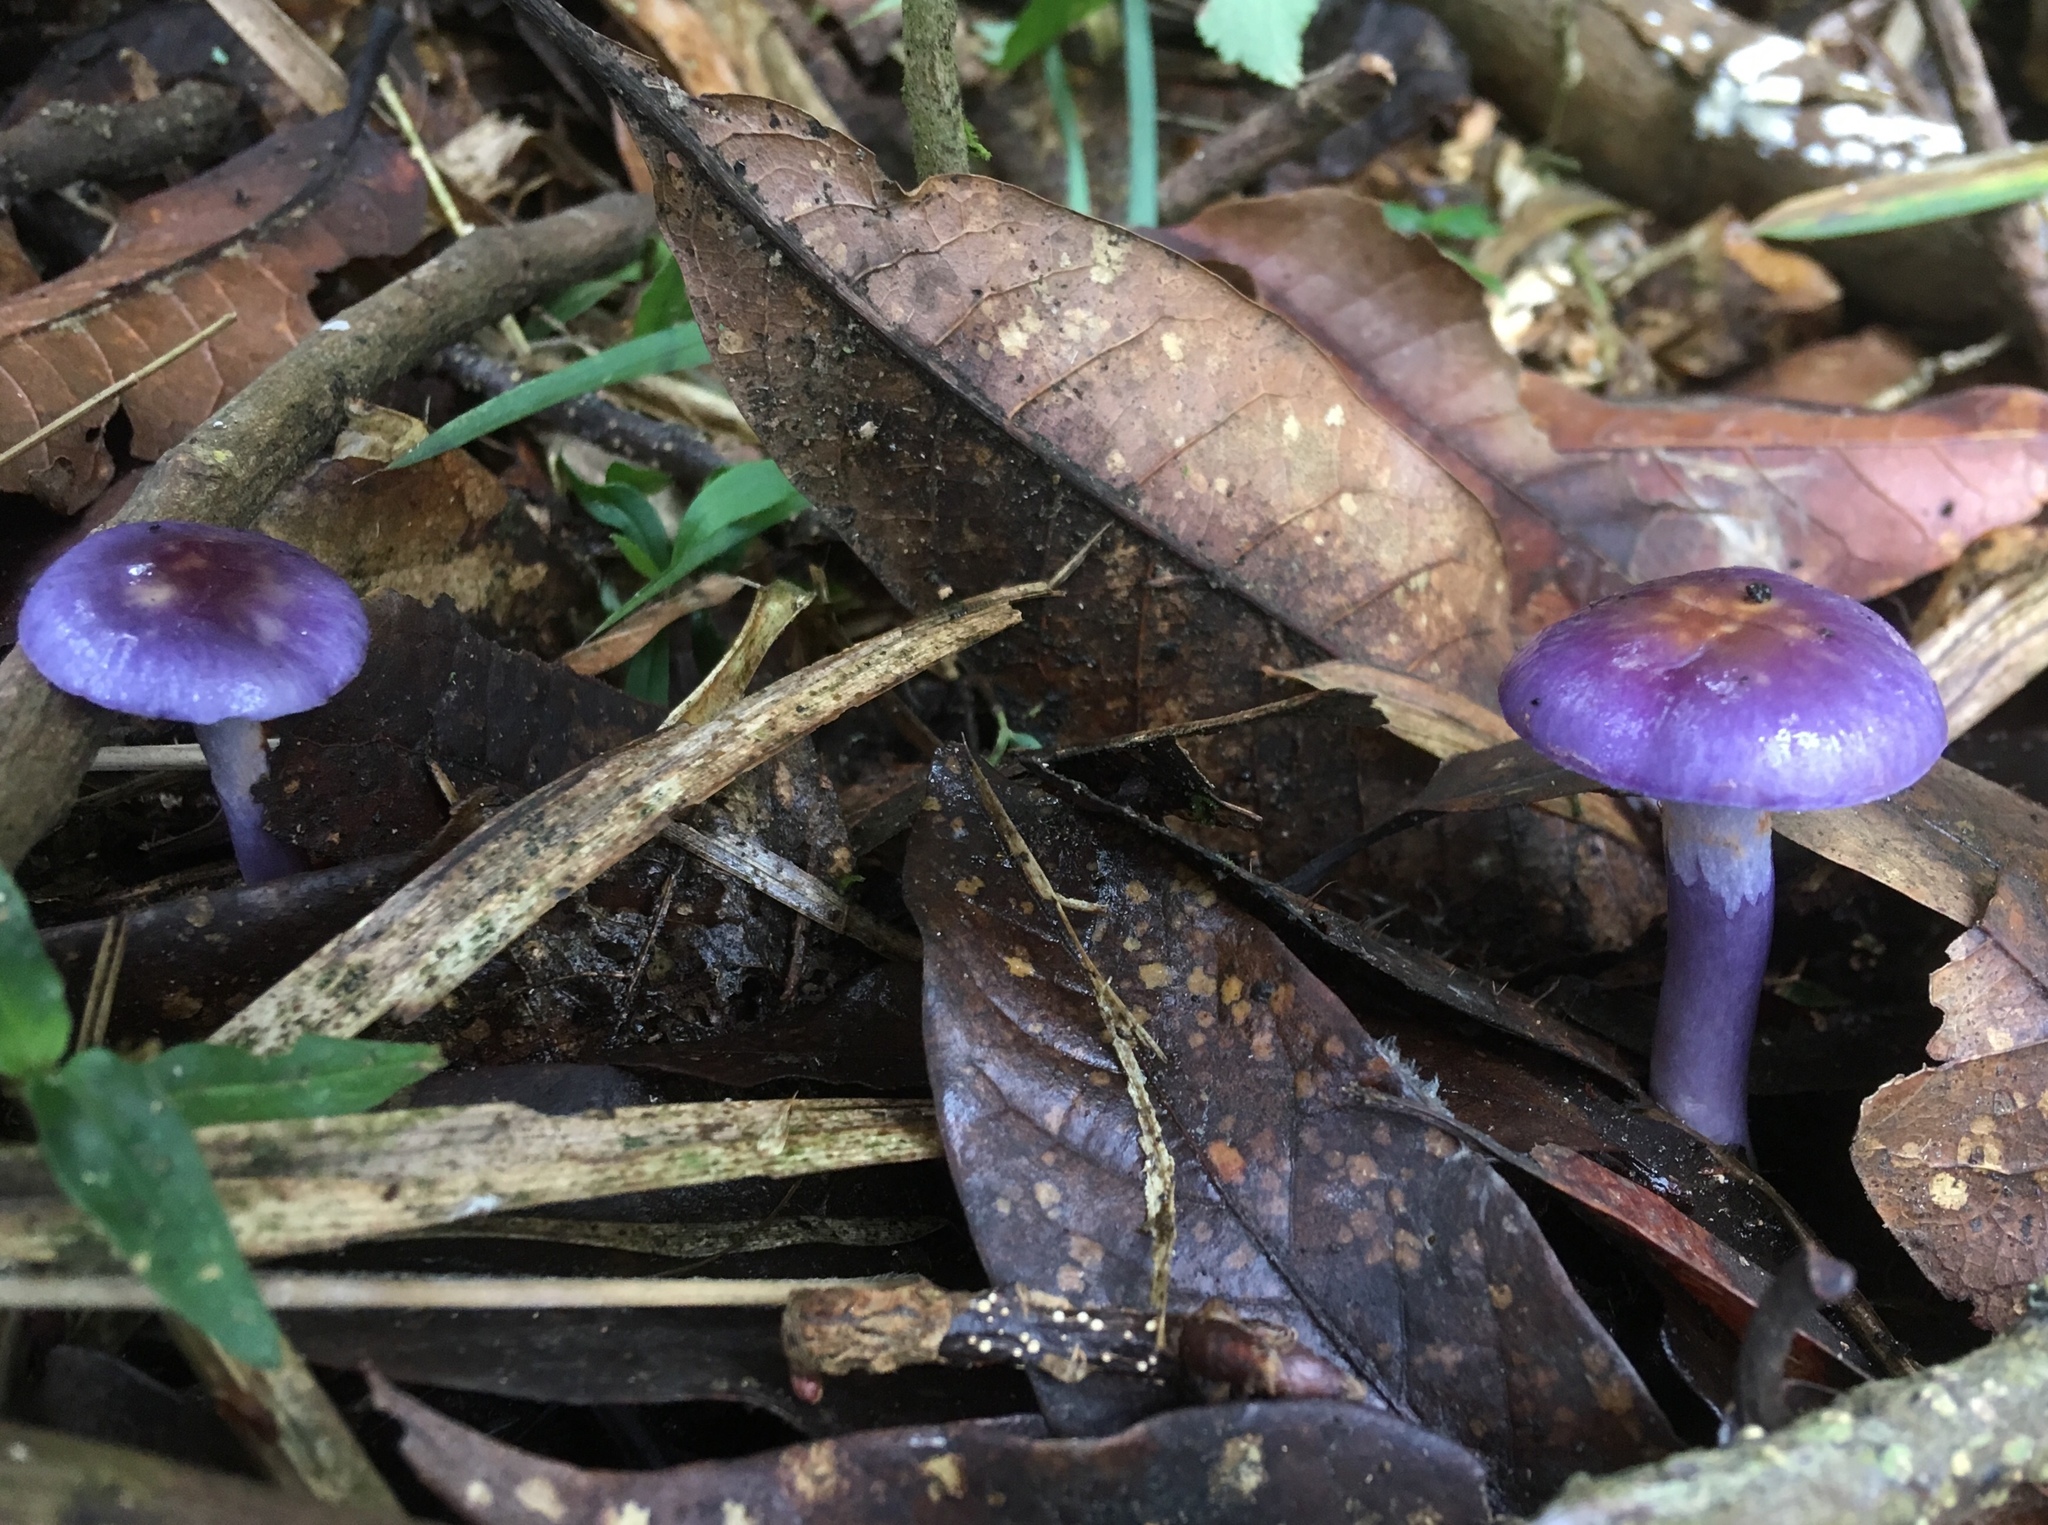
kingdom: Fungi
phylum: Basidiomycota
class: Agaricomycetes
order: Agaricales
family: Cortinariaceae
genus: Cortinarius
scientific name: Cortinarius iodes
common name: Viscid violet cort
